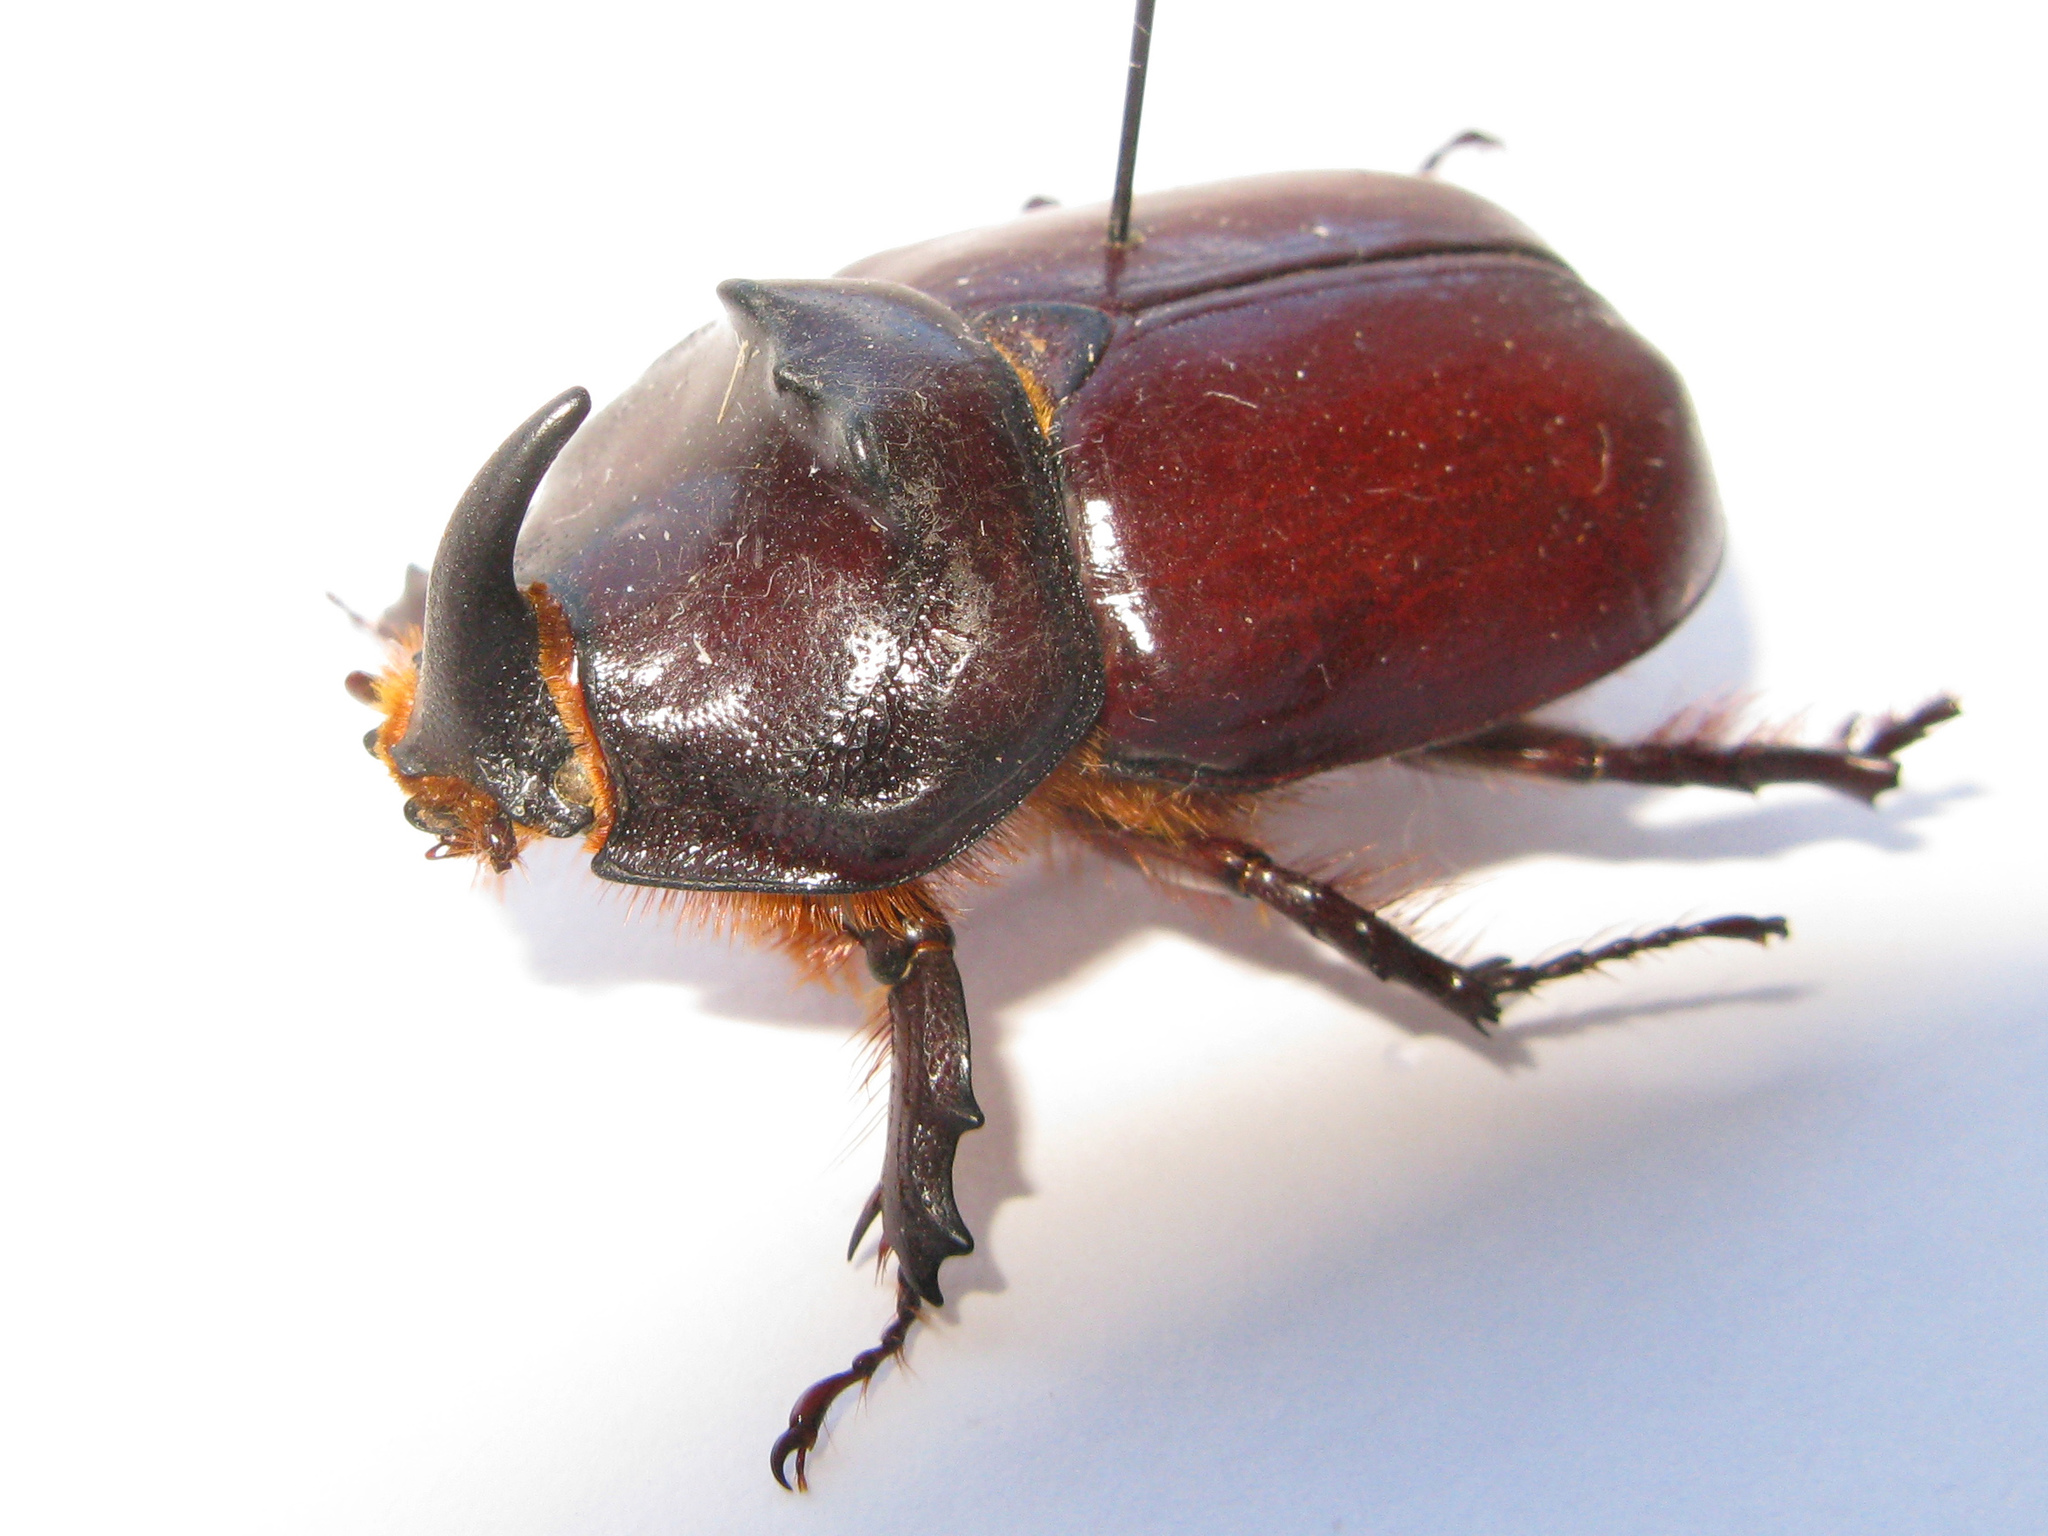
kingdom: Animalia
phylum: Arthropoda
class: Insecta
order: Coleoptera
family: Scarabaeidae
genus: Oryctes
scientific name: Oryctes nasicornis
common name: European rhinoceros beetle
